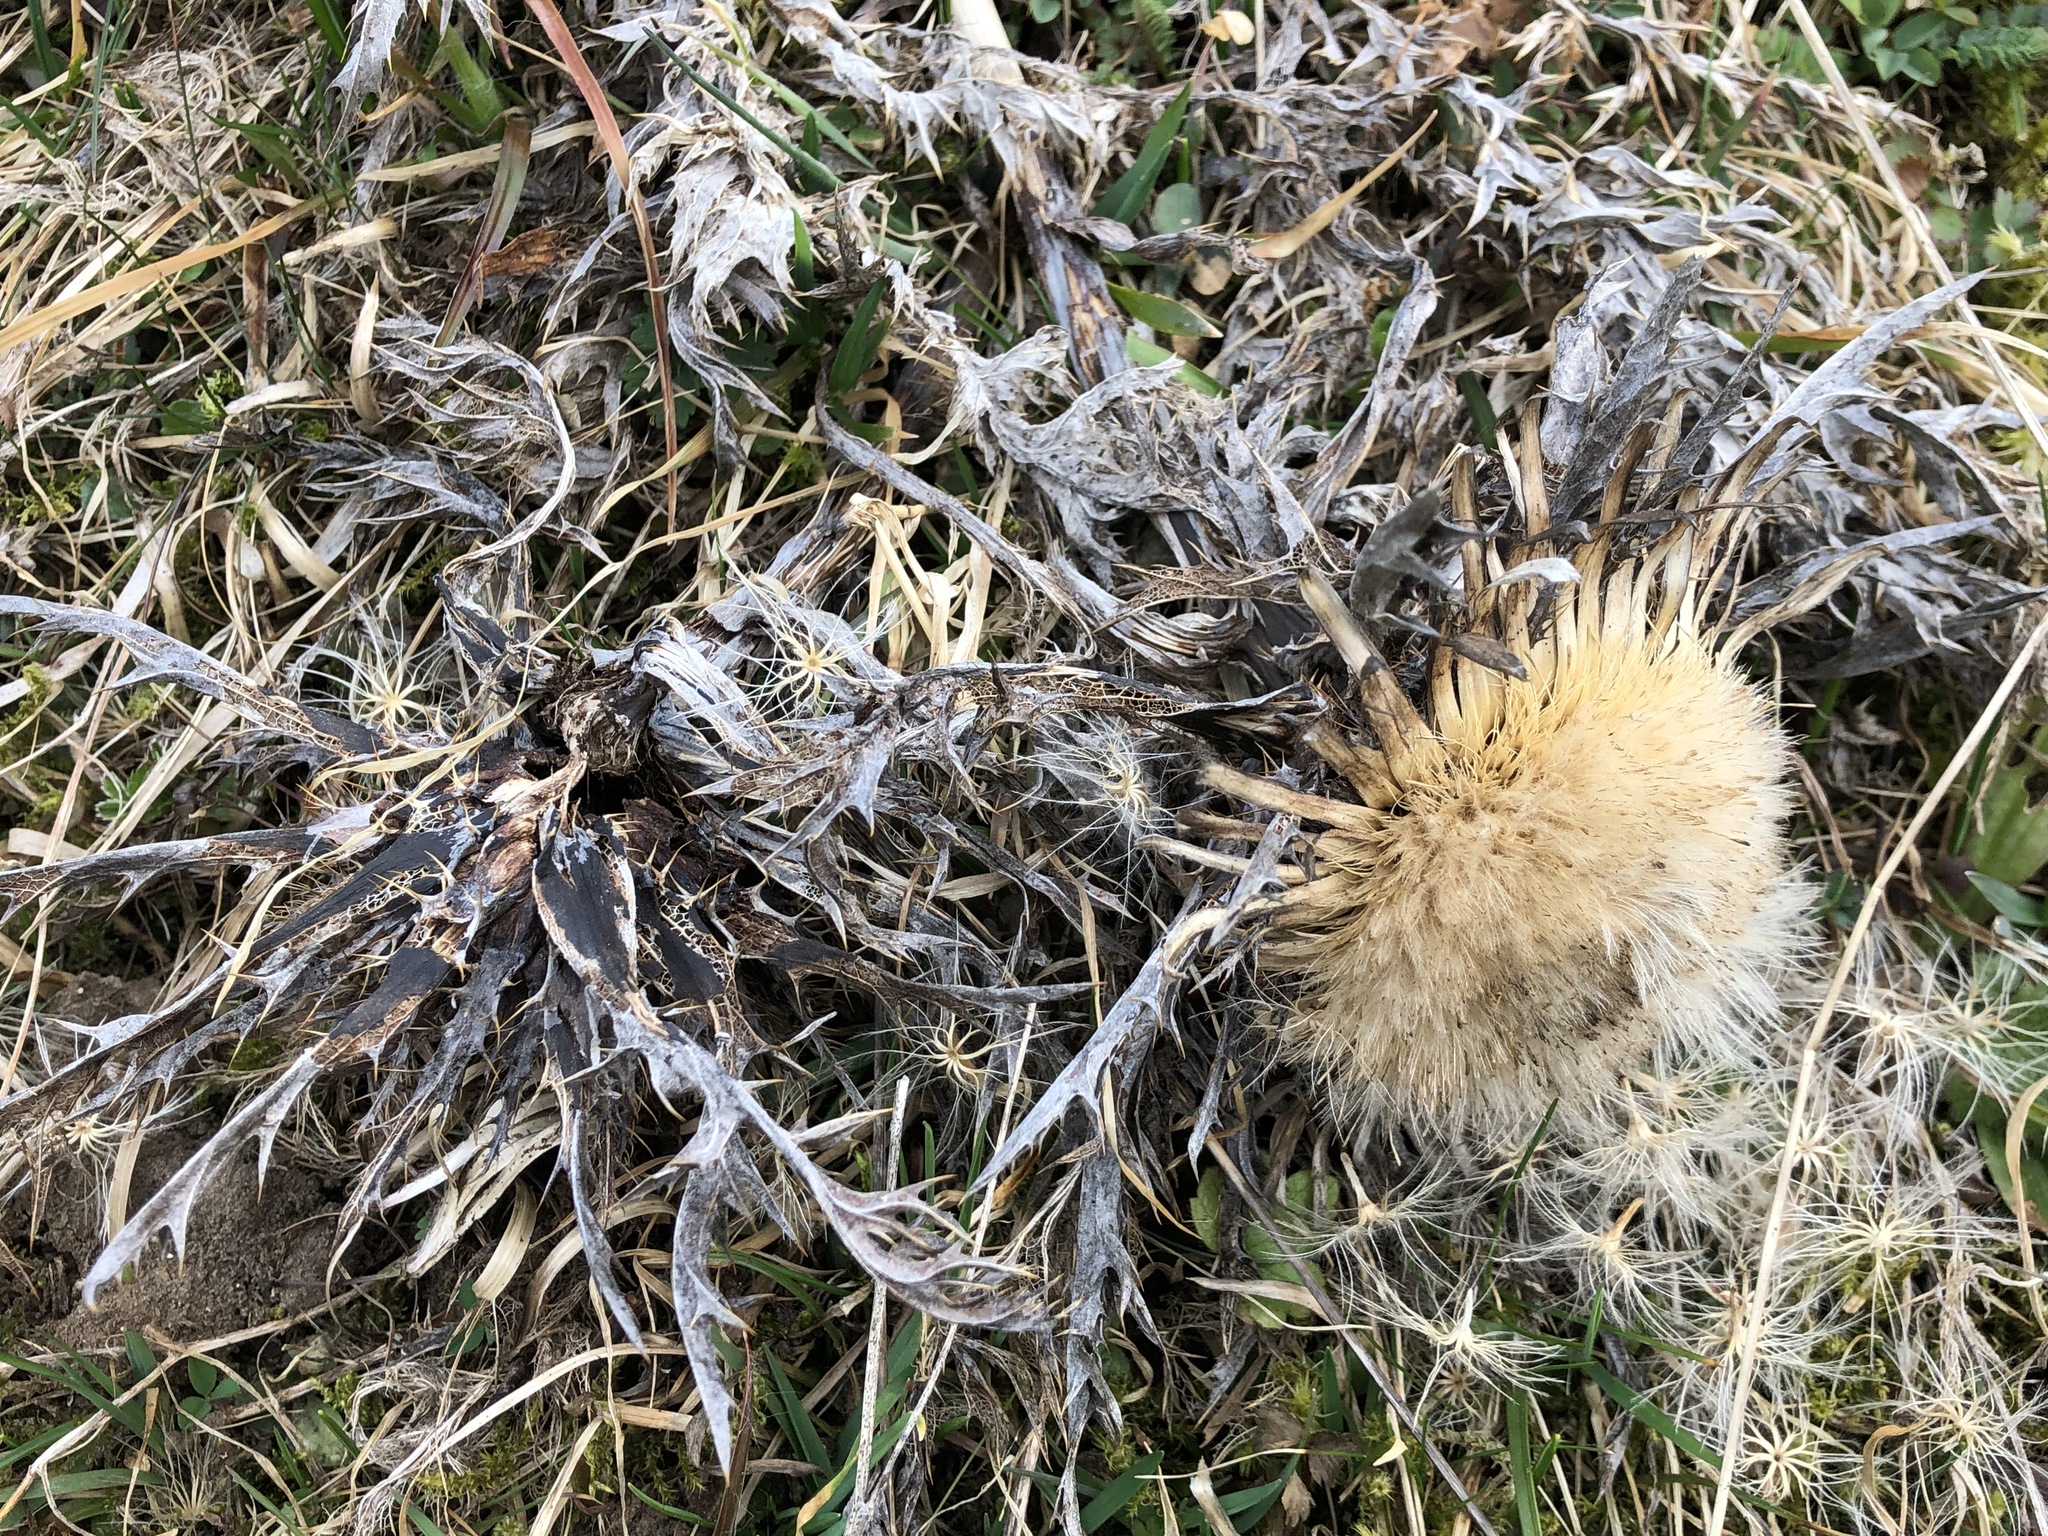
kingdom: Plantae
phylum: Tracheophyta
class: Magnoliopsida
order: Asterales
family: Asteraceae
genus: Carlina
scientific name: Carlina acaulis
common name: Stemless carline thistle
